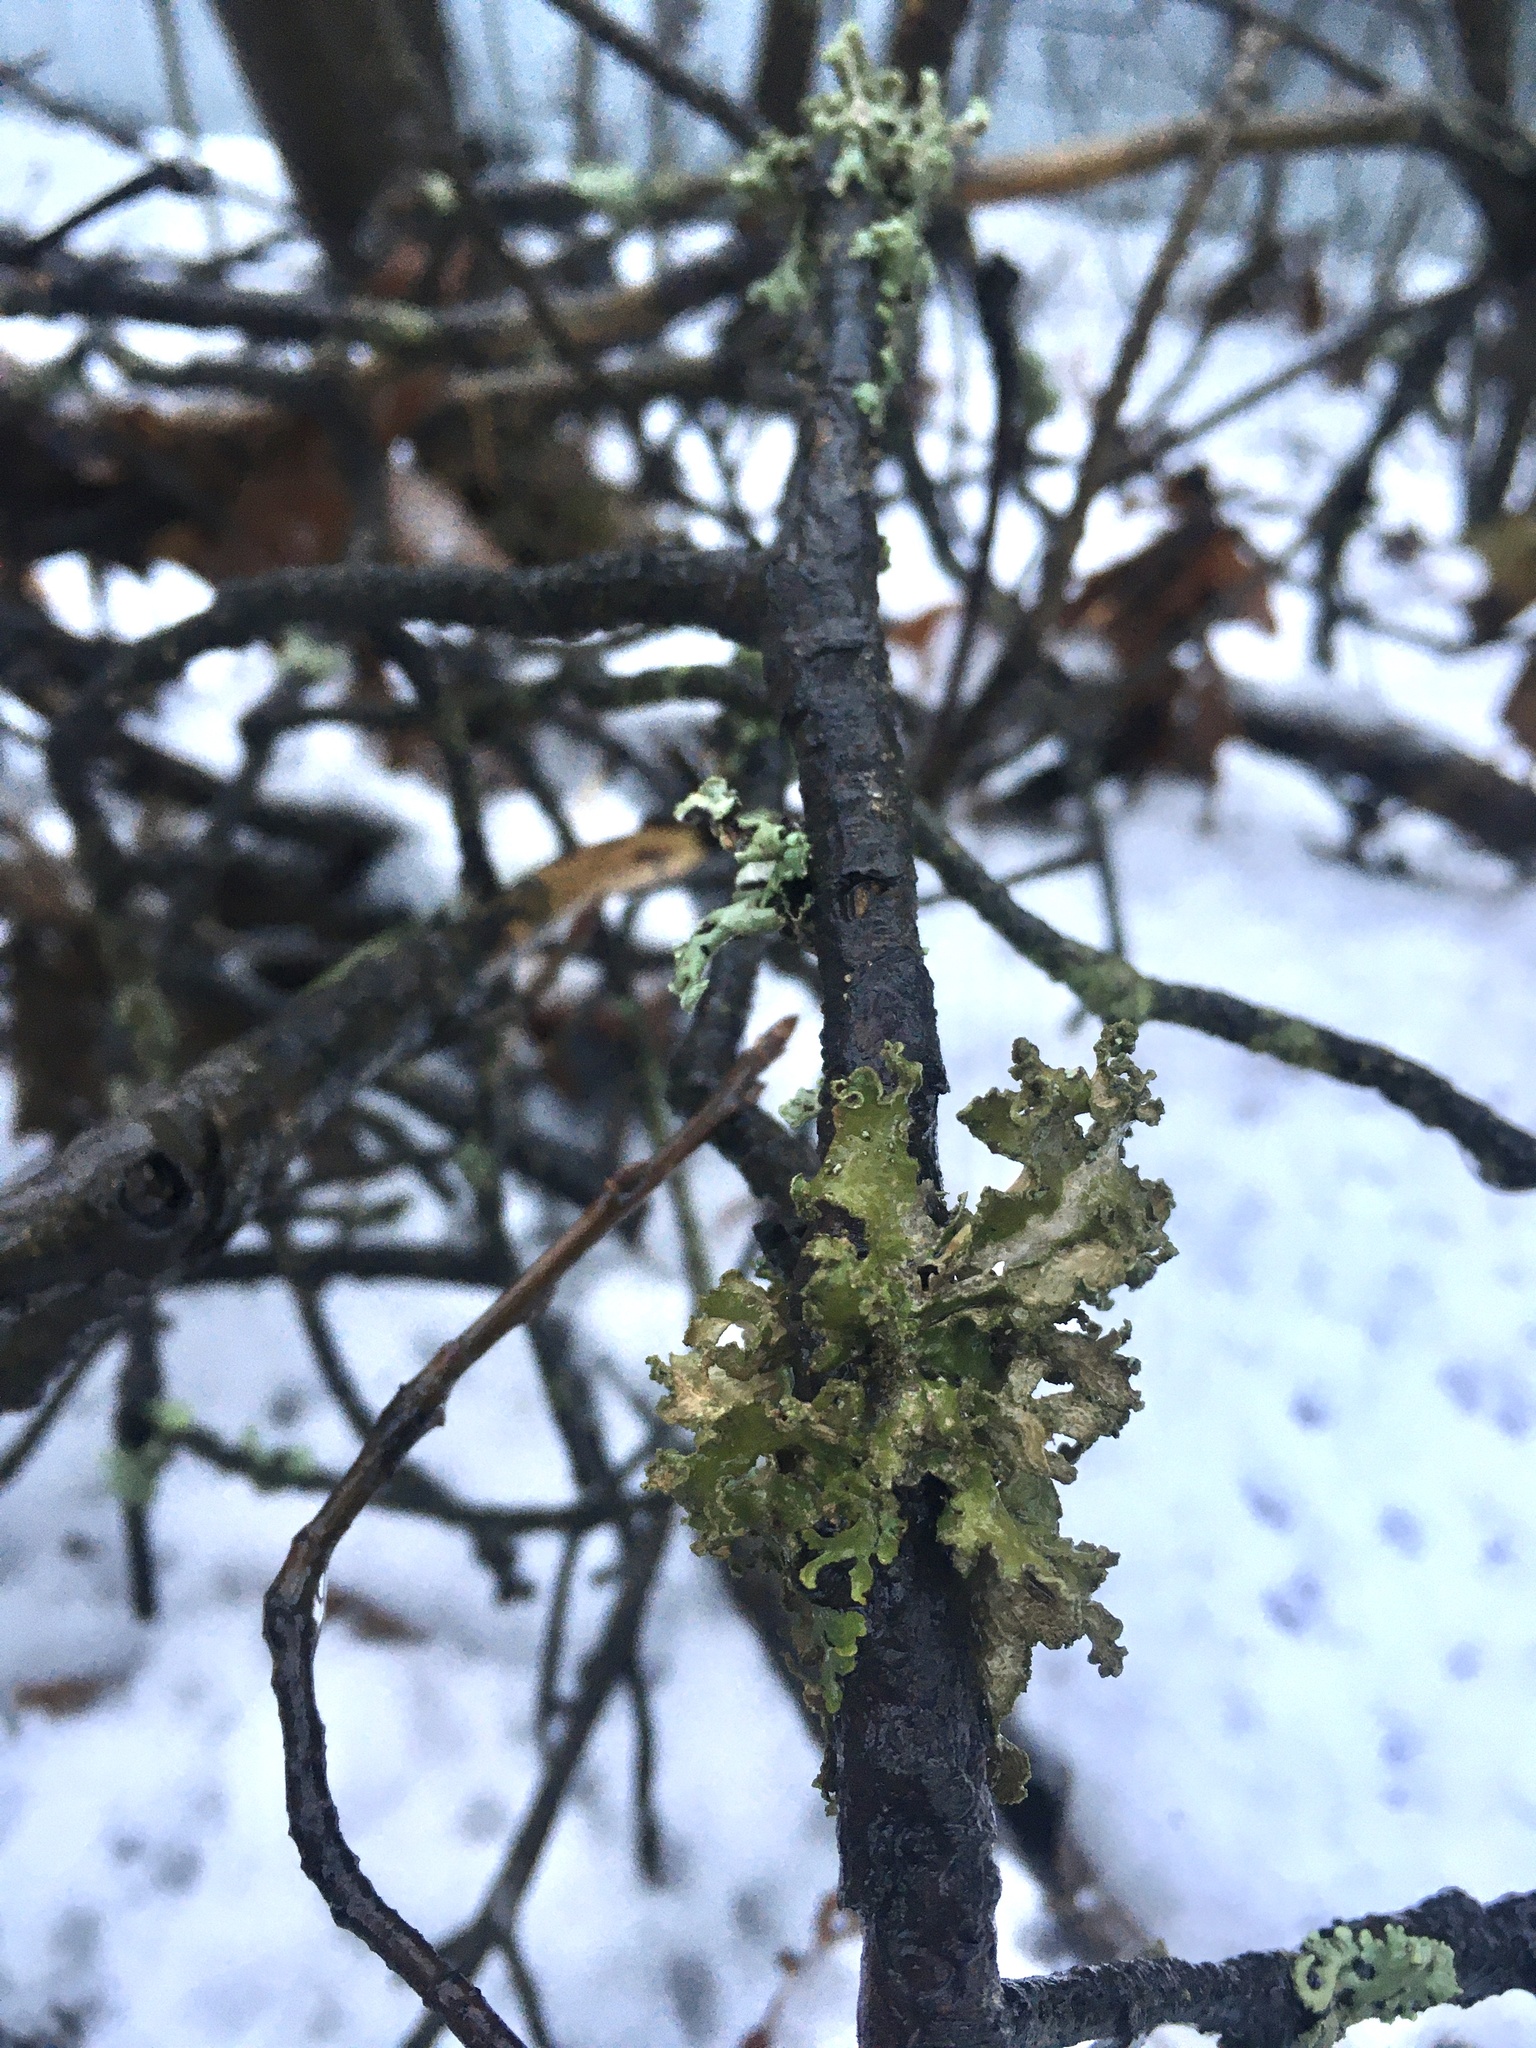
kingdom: Fungi
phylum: Ascomycota
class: Lecanoromycetes
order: Lecanorales
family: Parmeliaceae
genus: Nephromopsis
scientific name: Nephromopsis chlorophylla
